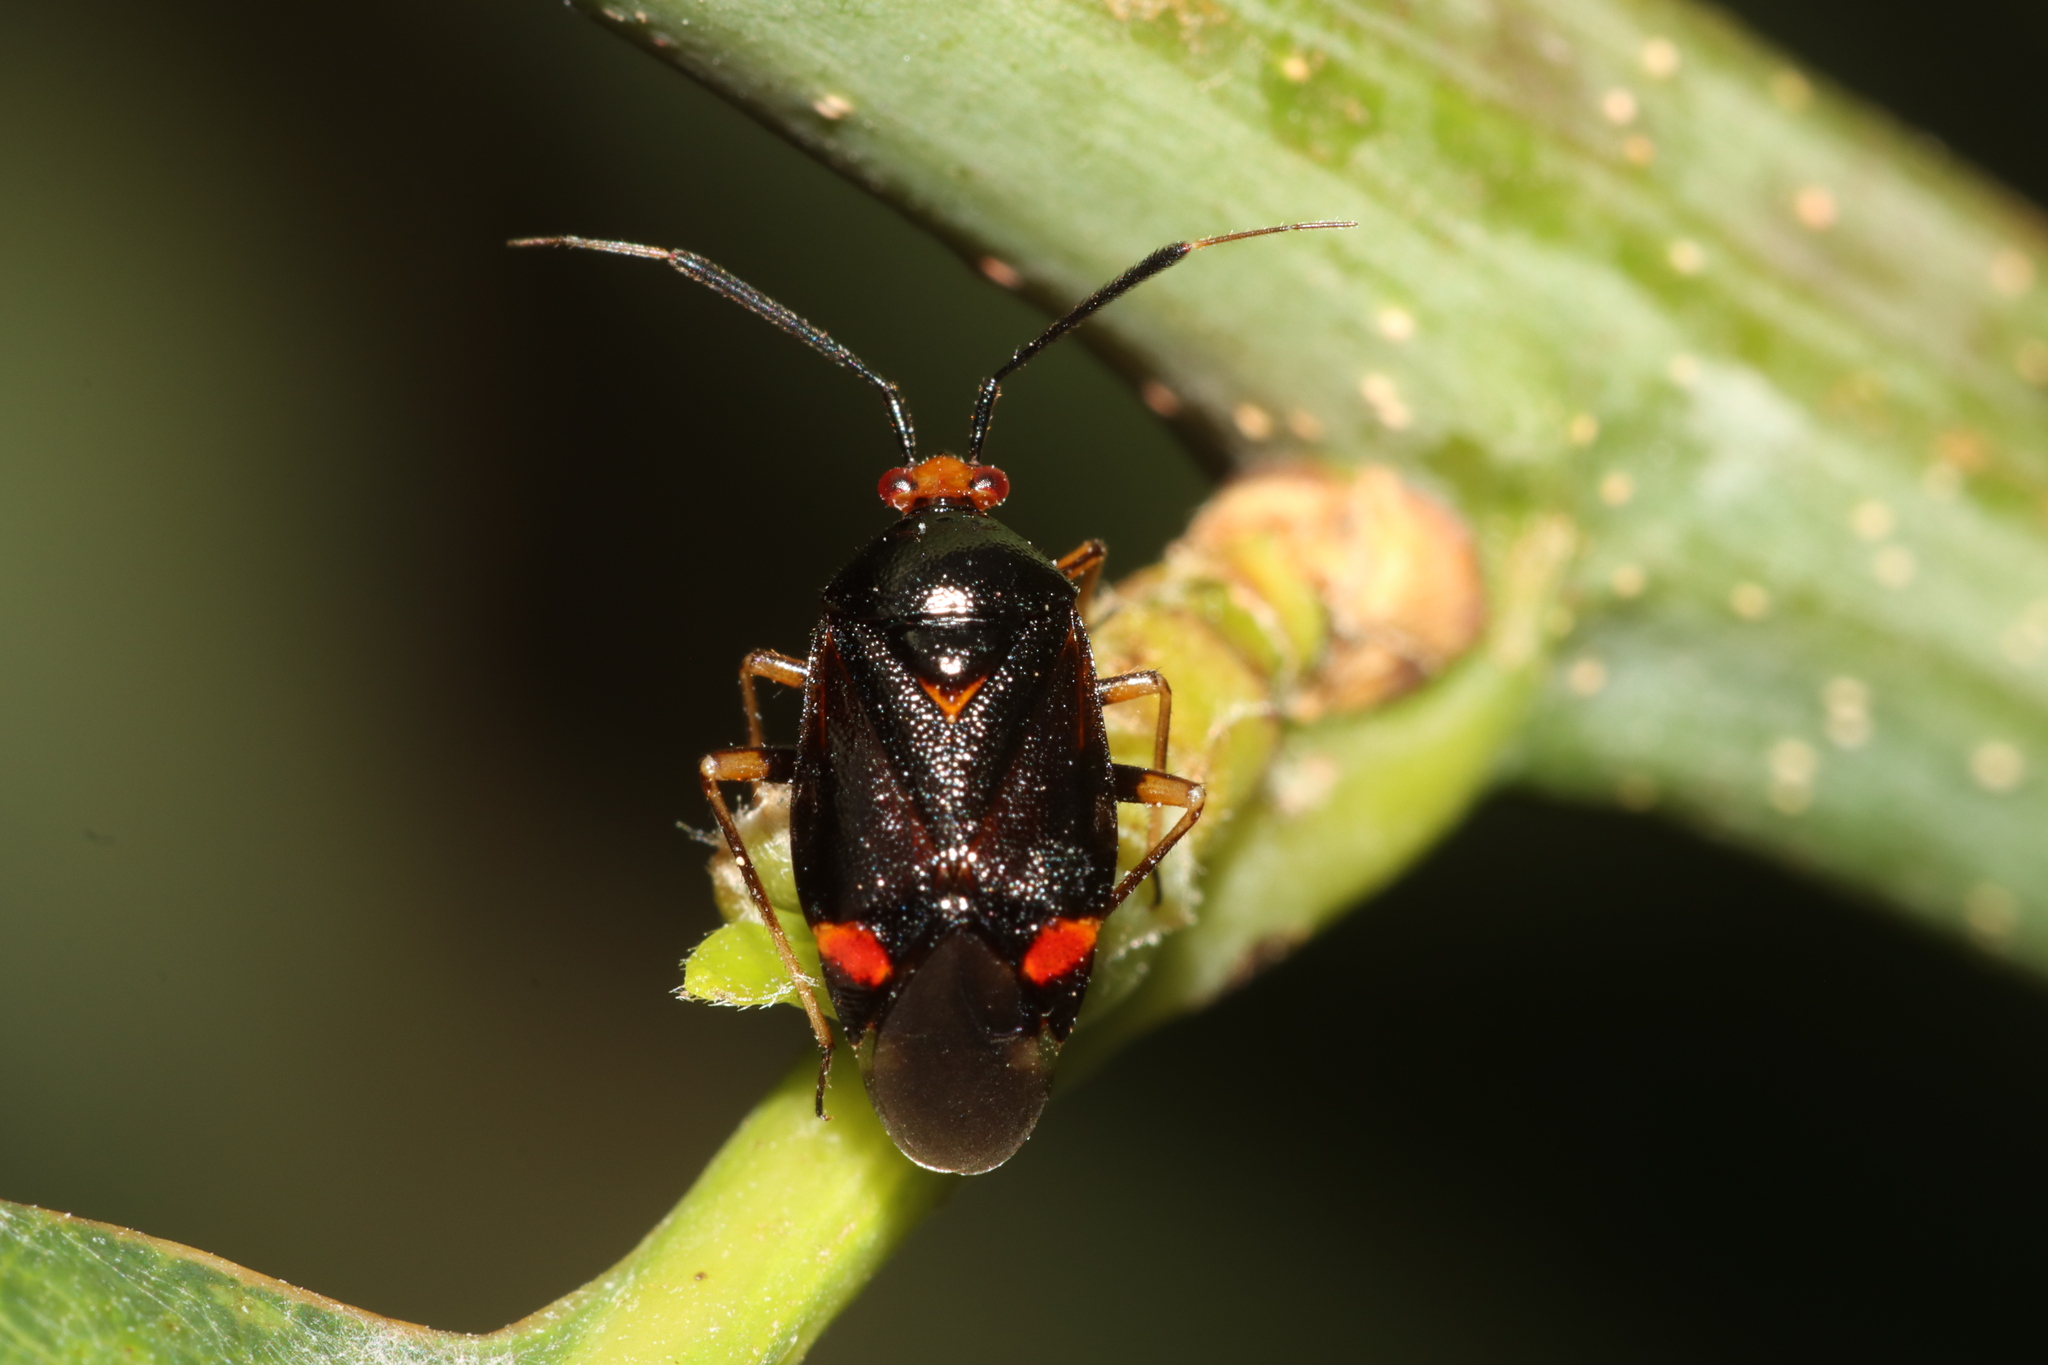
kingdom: Animalia
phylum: Arthropoda
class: Insecta
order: Hemiptera
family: Miridae
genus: Deraeocoris
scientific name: Deraeocoris ruber
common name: Plant bug
